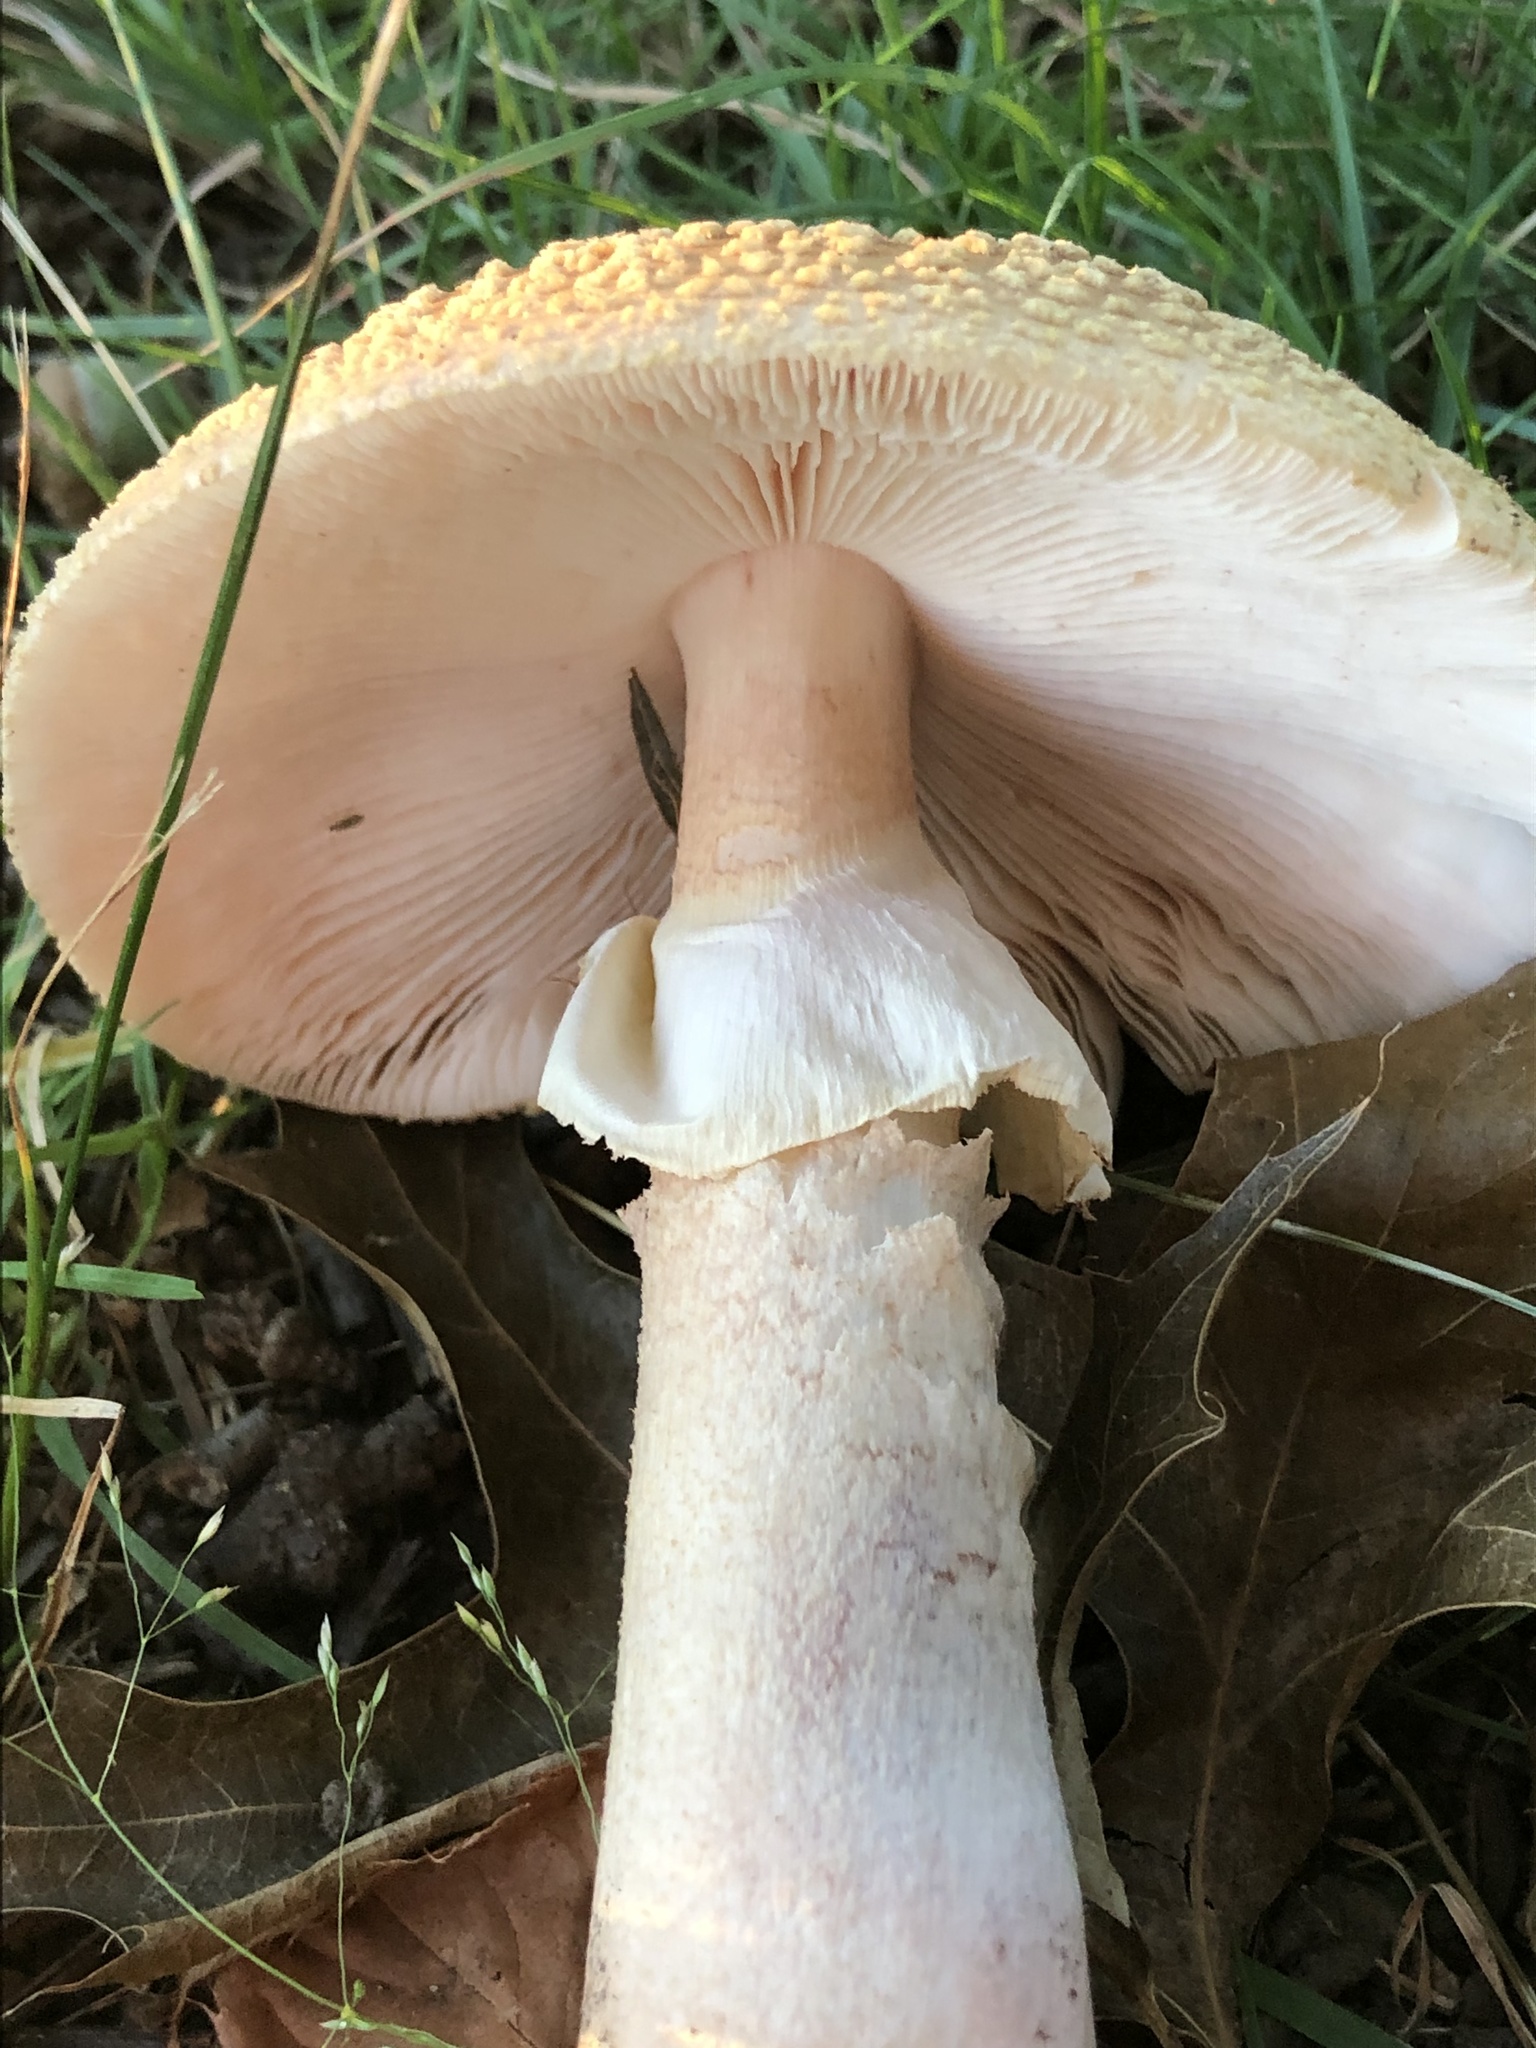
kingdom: Fungi
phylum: Basidiomycota
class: Agaricomycetes
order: Agaricales
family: Amanitaceae
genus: Amanita
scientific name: Amanita rubescens
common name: Blusher
